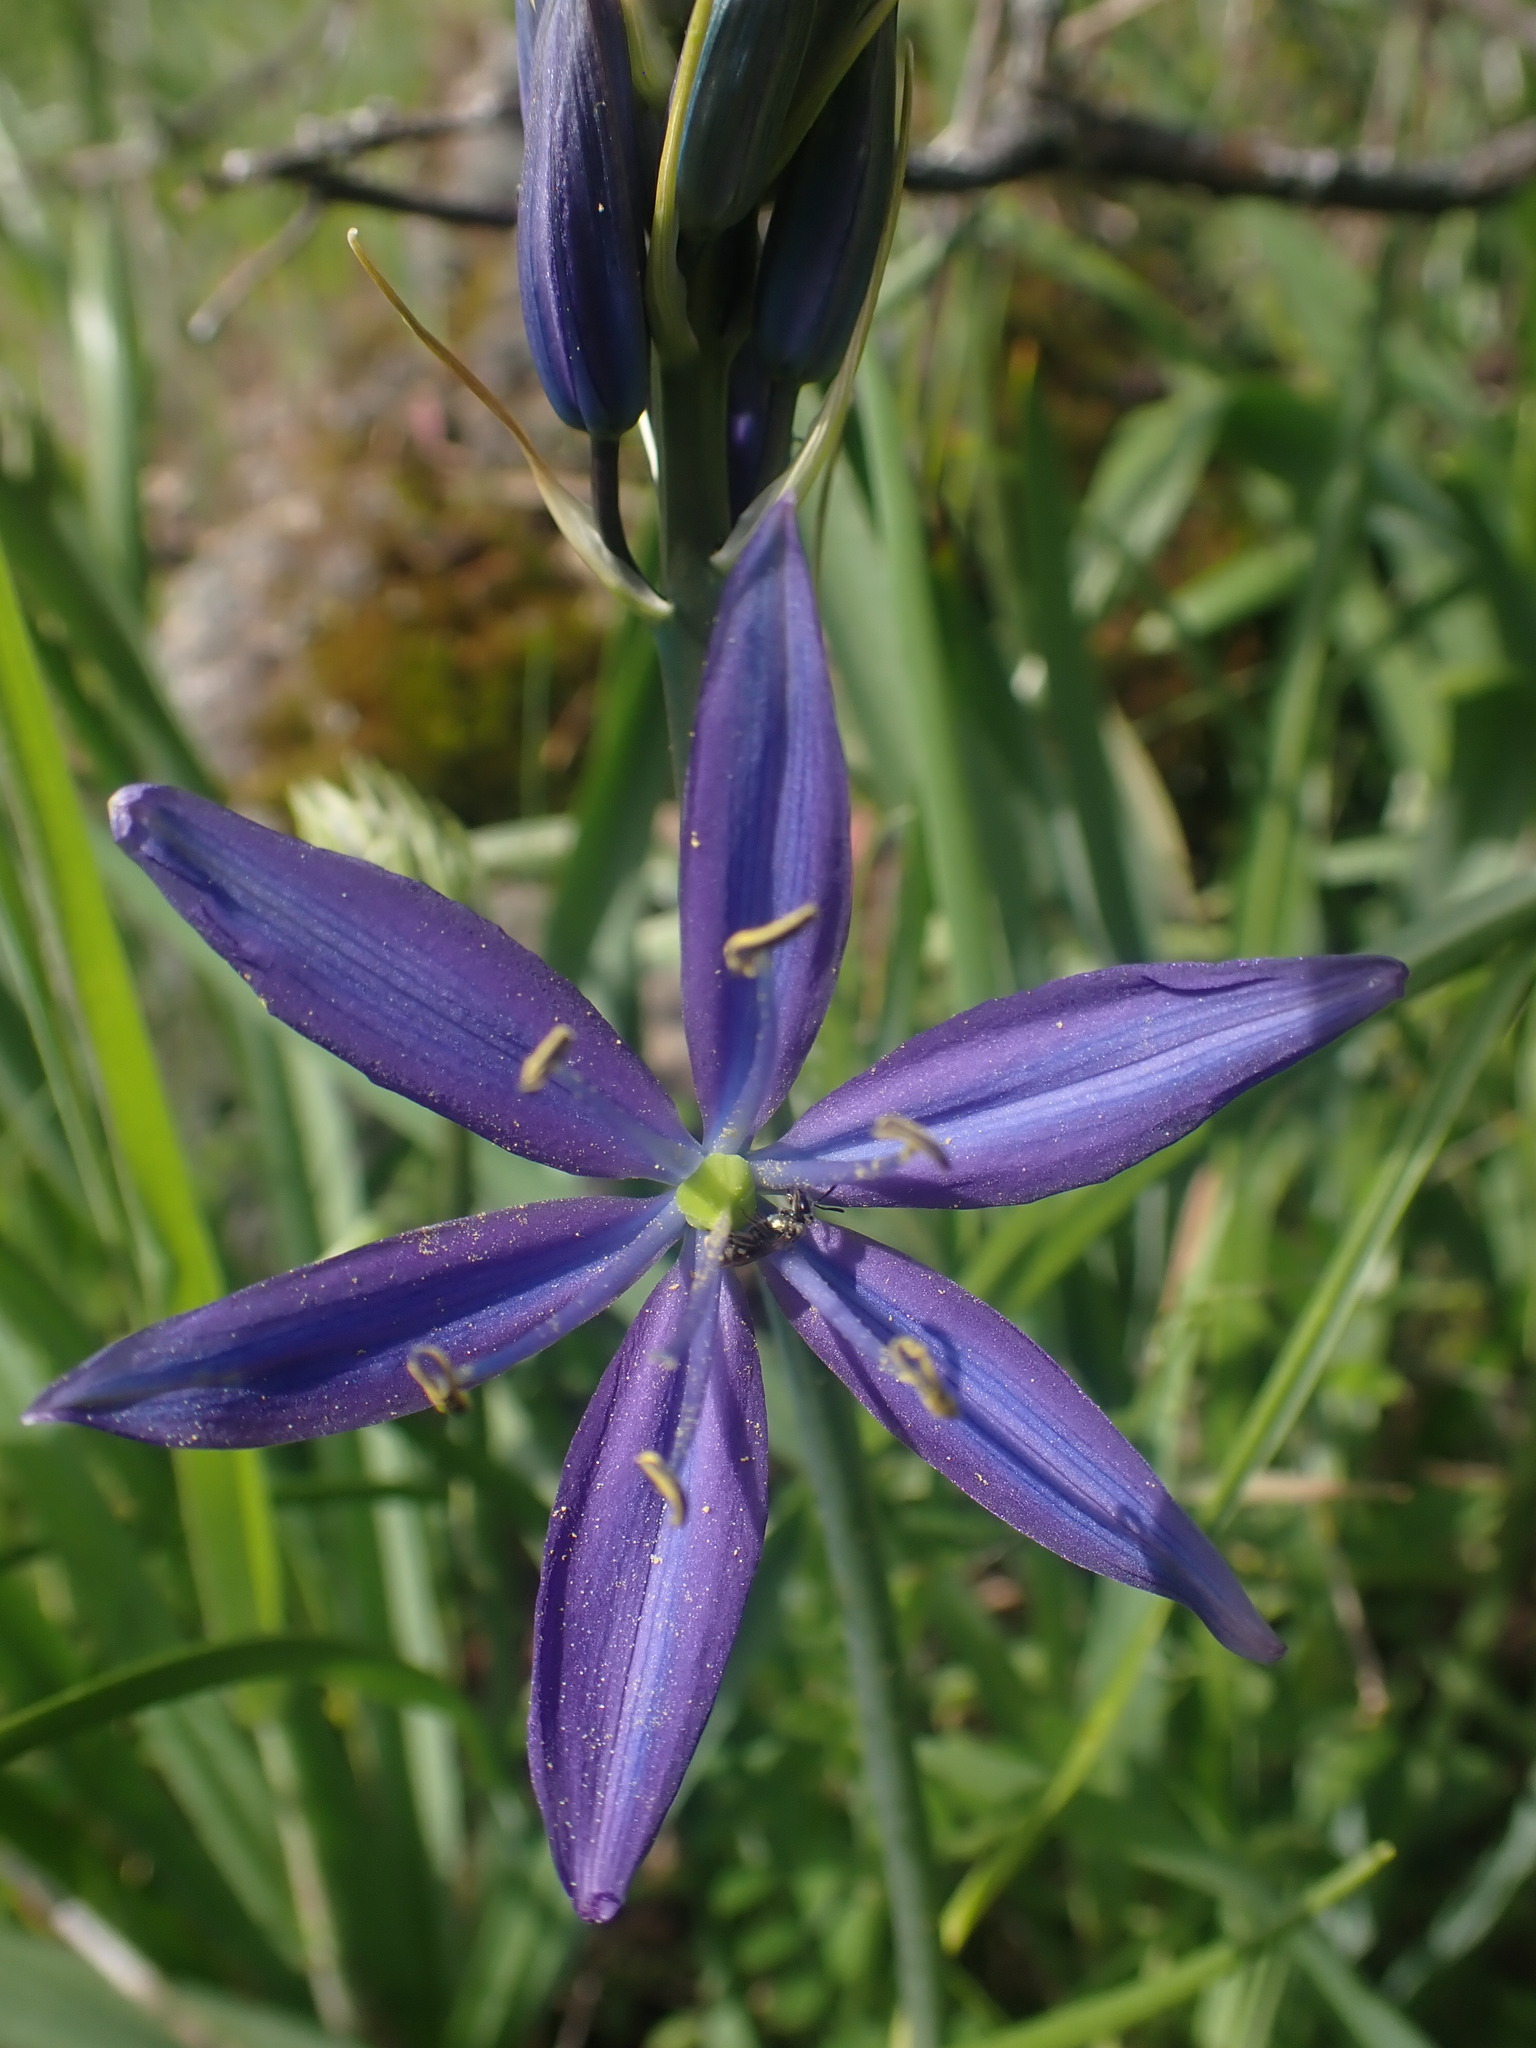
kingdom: Plantae
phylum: Tracheophyta
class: Liliopsida
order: Asparagales
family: Asparagaceae
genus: Camassia
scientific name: Camassia leichtlinii
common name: Leichtlin's camas
